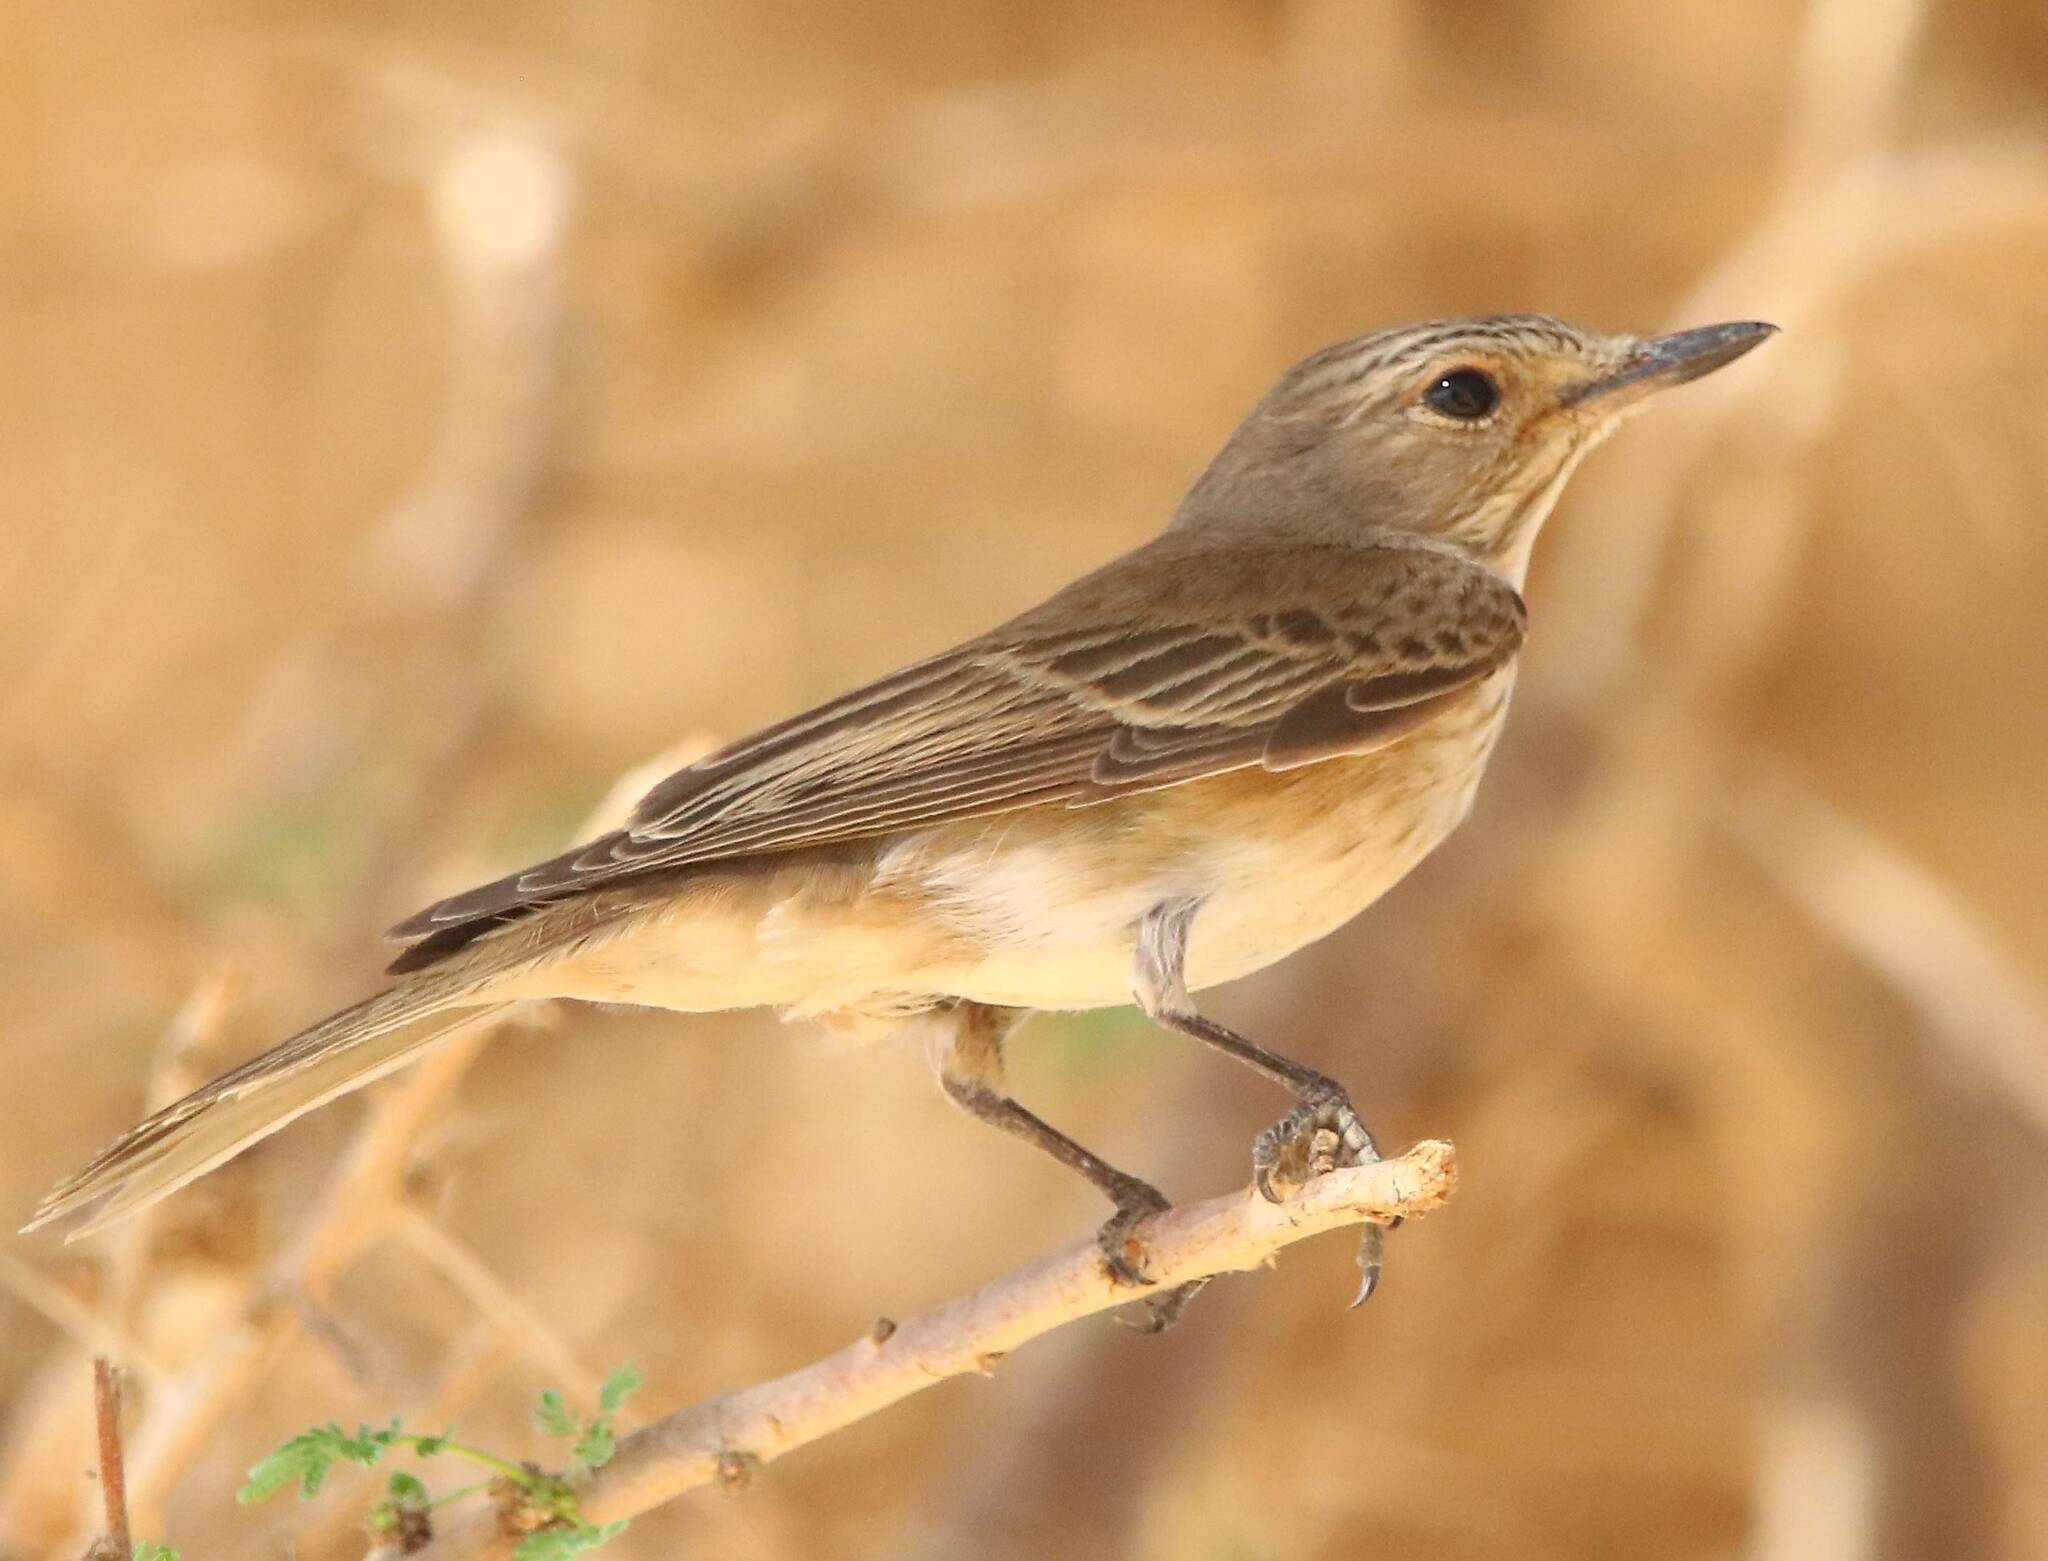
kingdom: Animalia
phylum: Chordata
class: Aves
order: Passeriformes
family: Muscicapidae
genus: Muscicapa
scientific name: Muscicapa striata
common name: Spotted flycatcher
